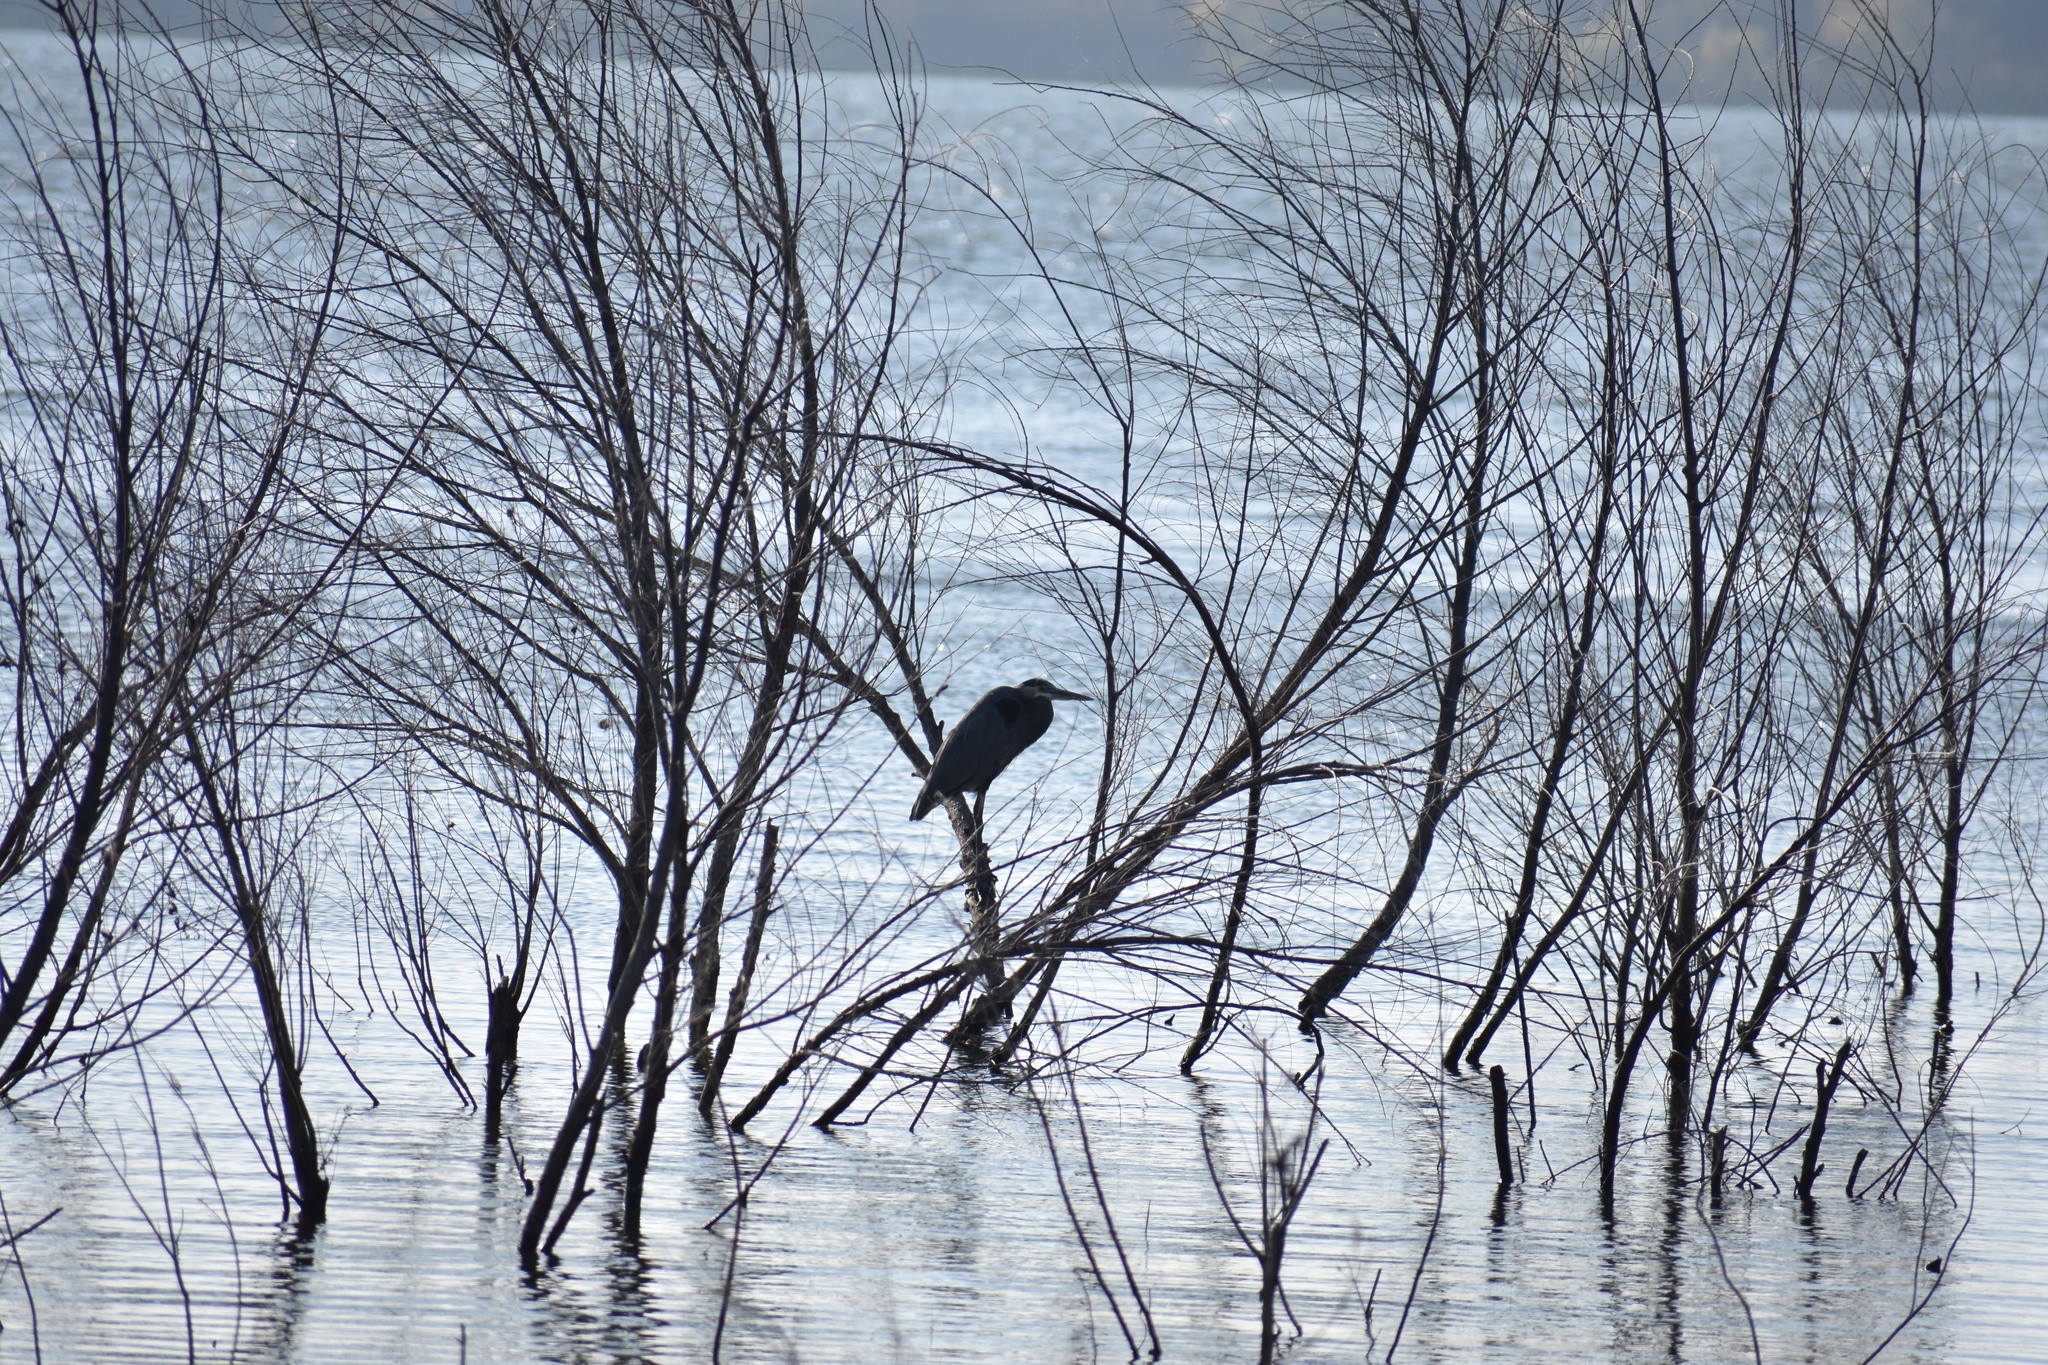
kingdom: Animalia
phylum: Chordata
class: Aves
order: Pelecaniformes
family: Ardeidae
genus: Ardea
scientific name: Ardea herodias
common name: Great blue heron
